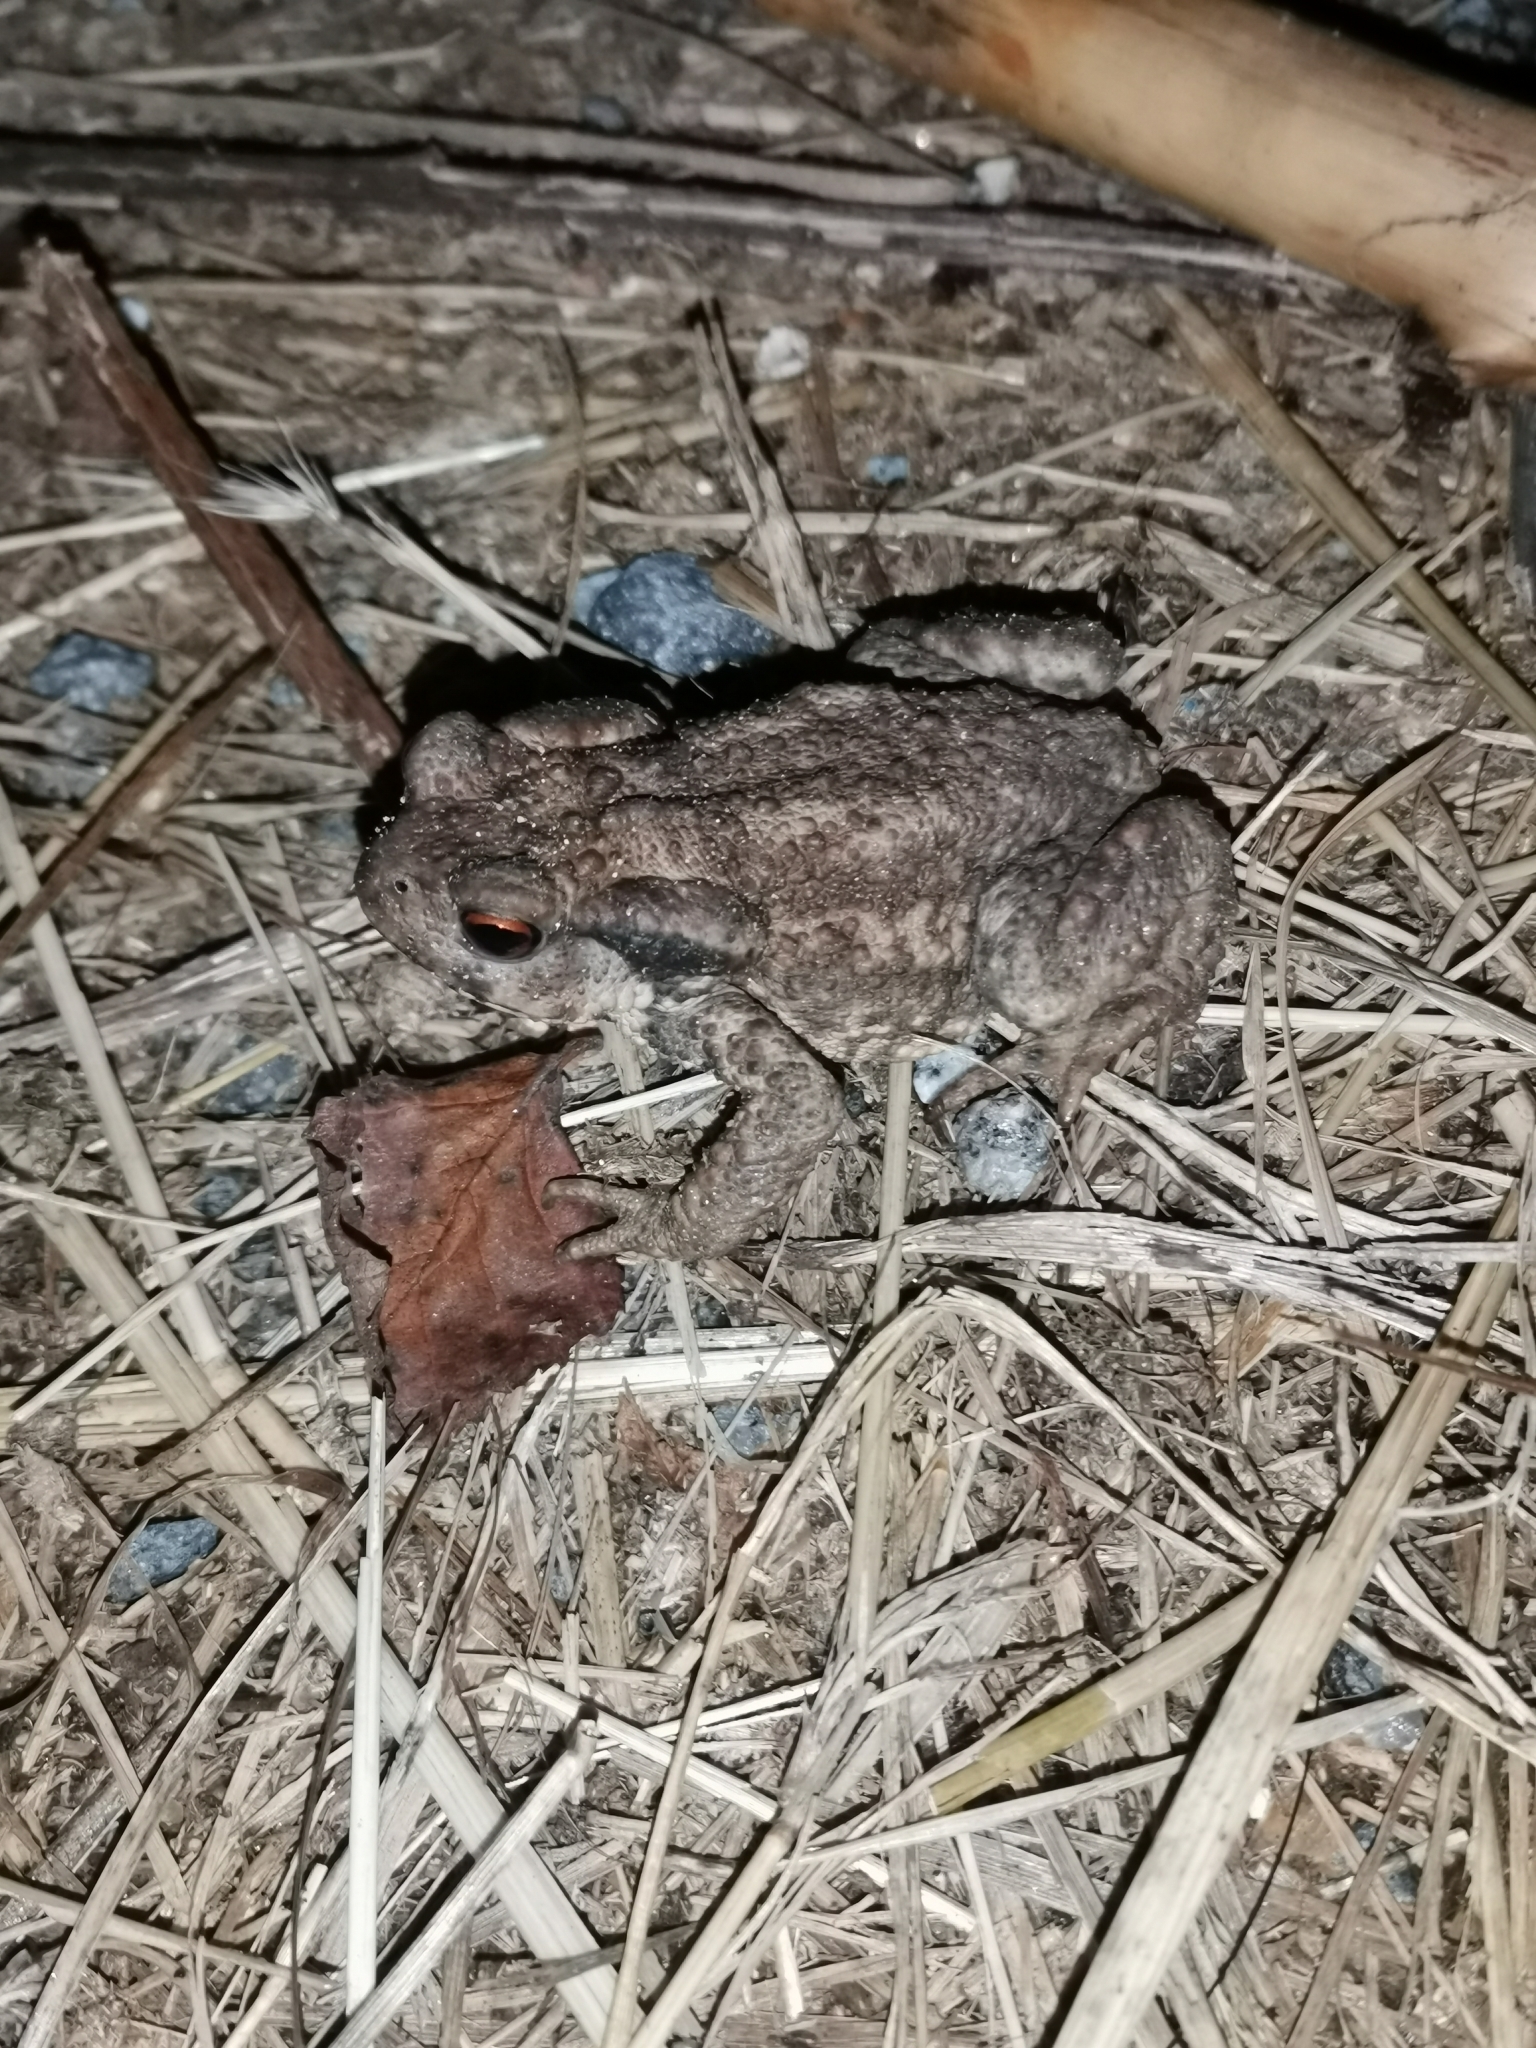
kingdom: Animalia
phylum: Chordata
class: Amphibia
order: Anura
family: Bufonidae
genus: Bufo
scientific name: Bufo spinosus
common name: Western common toad
